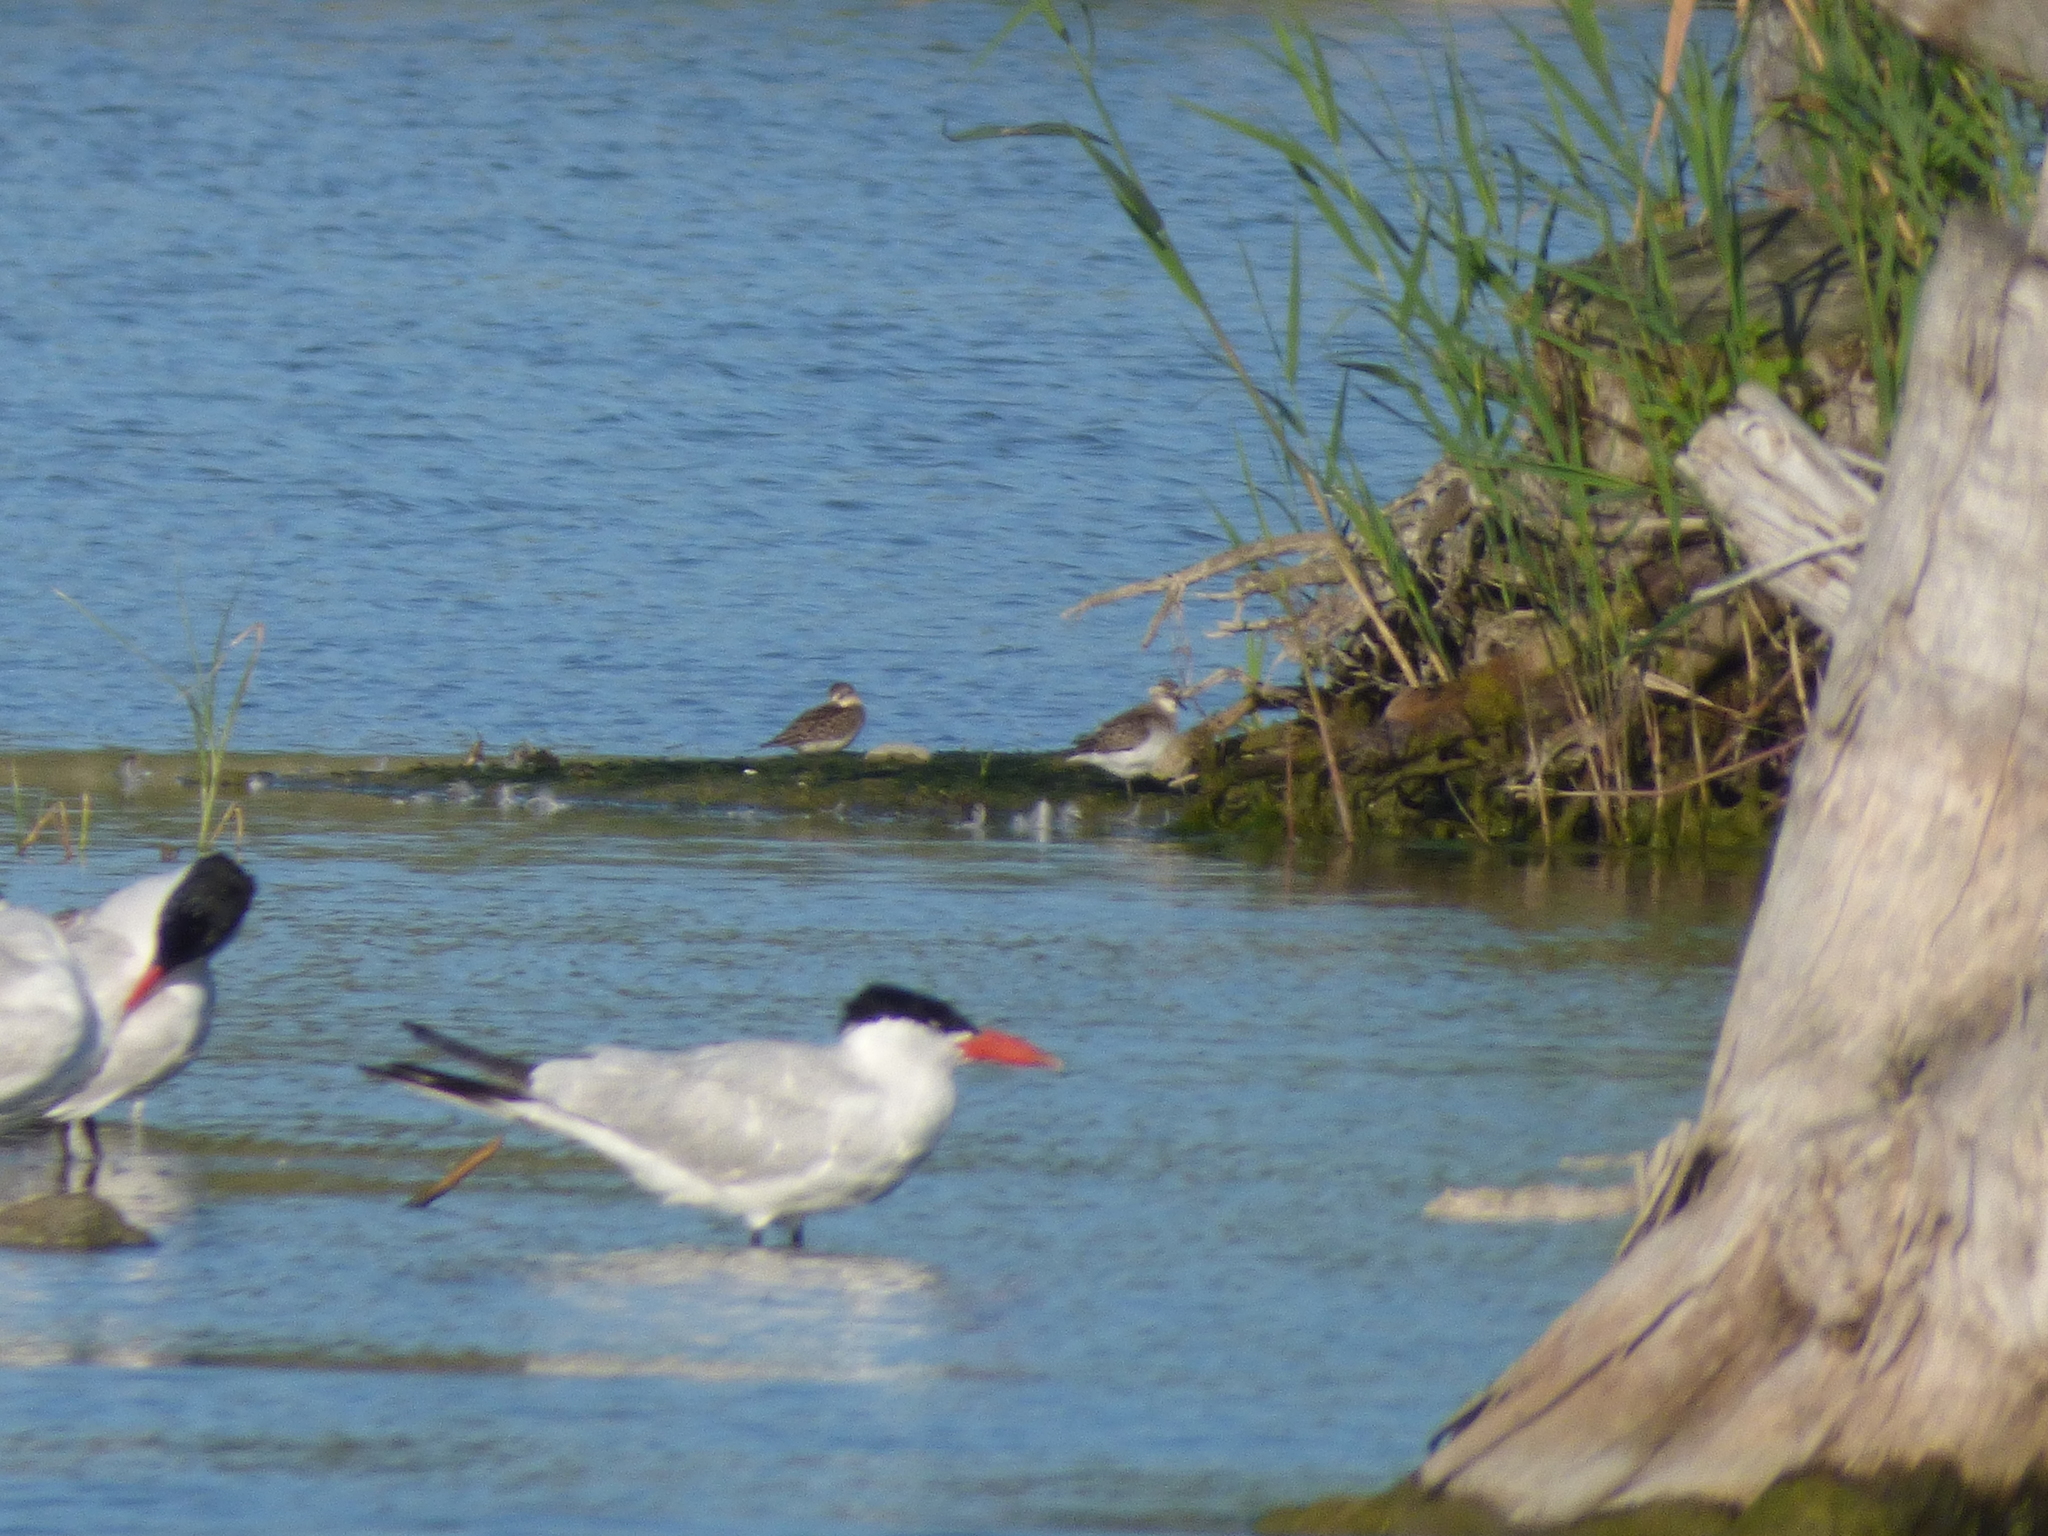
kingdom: Animalia
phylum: Chordata
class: Aves
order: Charadriiformes
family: Scolopacidae
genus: Calidris
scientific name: Calidris pusilla
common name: Semipalmated sandpiper
